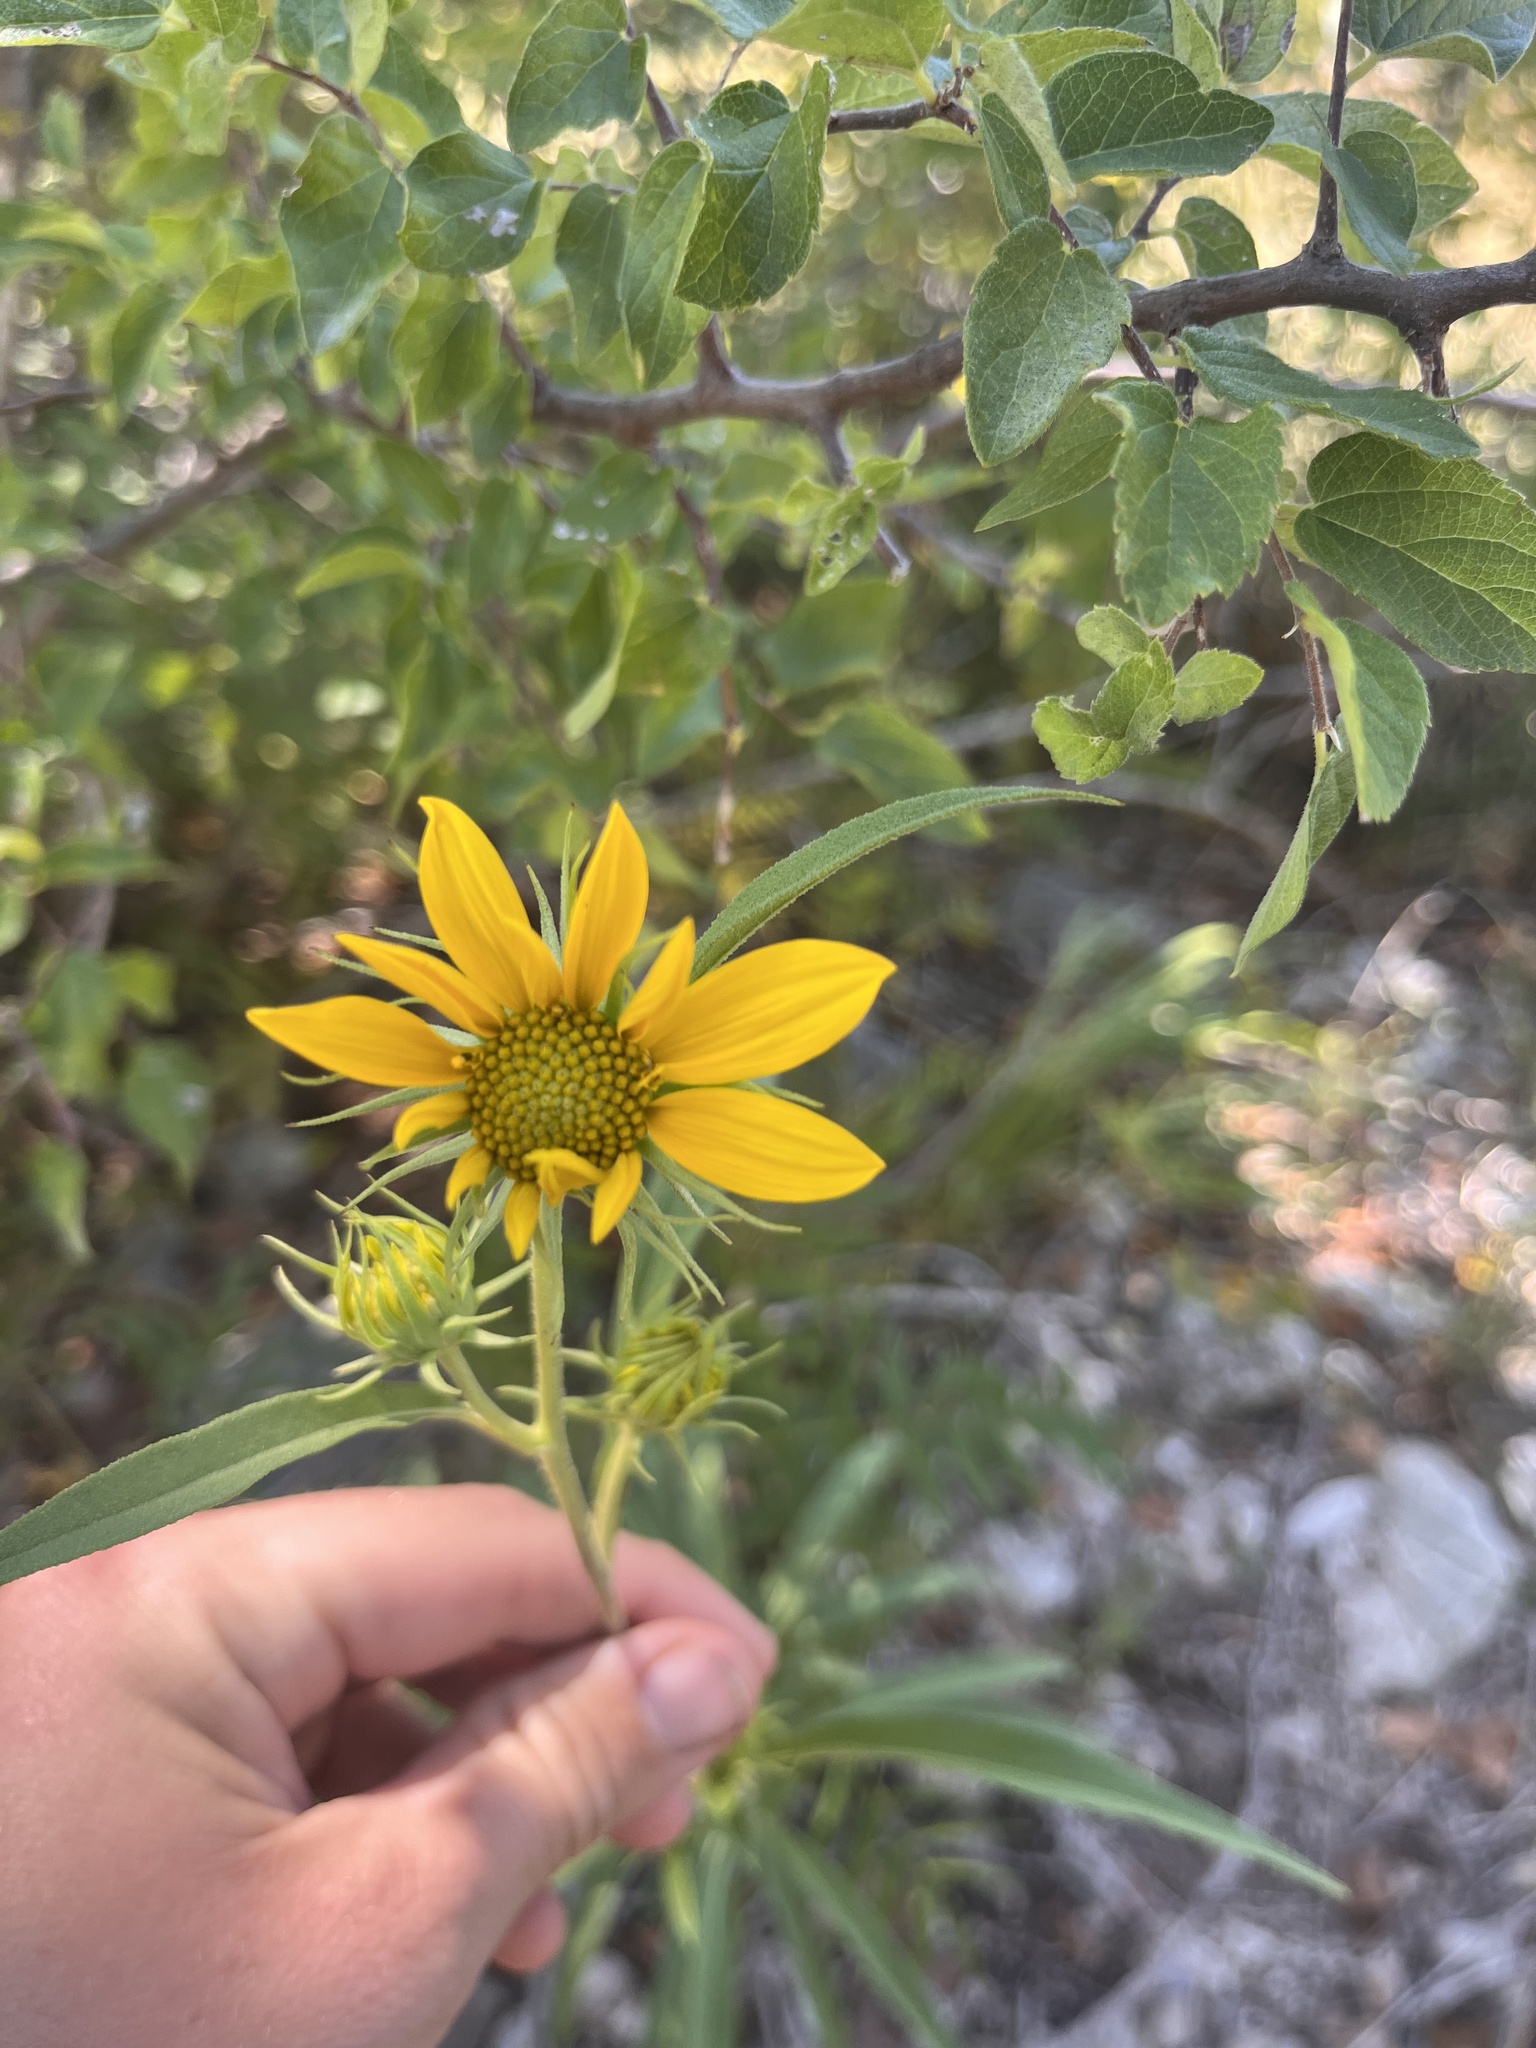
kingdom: Plantae
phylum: Tracheophyta
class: Magnoliopsida
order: Asterales
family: Asteraceae
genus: Helianthus
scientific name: Helianthus maximiliani
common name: Maximilian's sunflower
